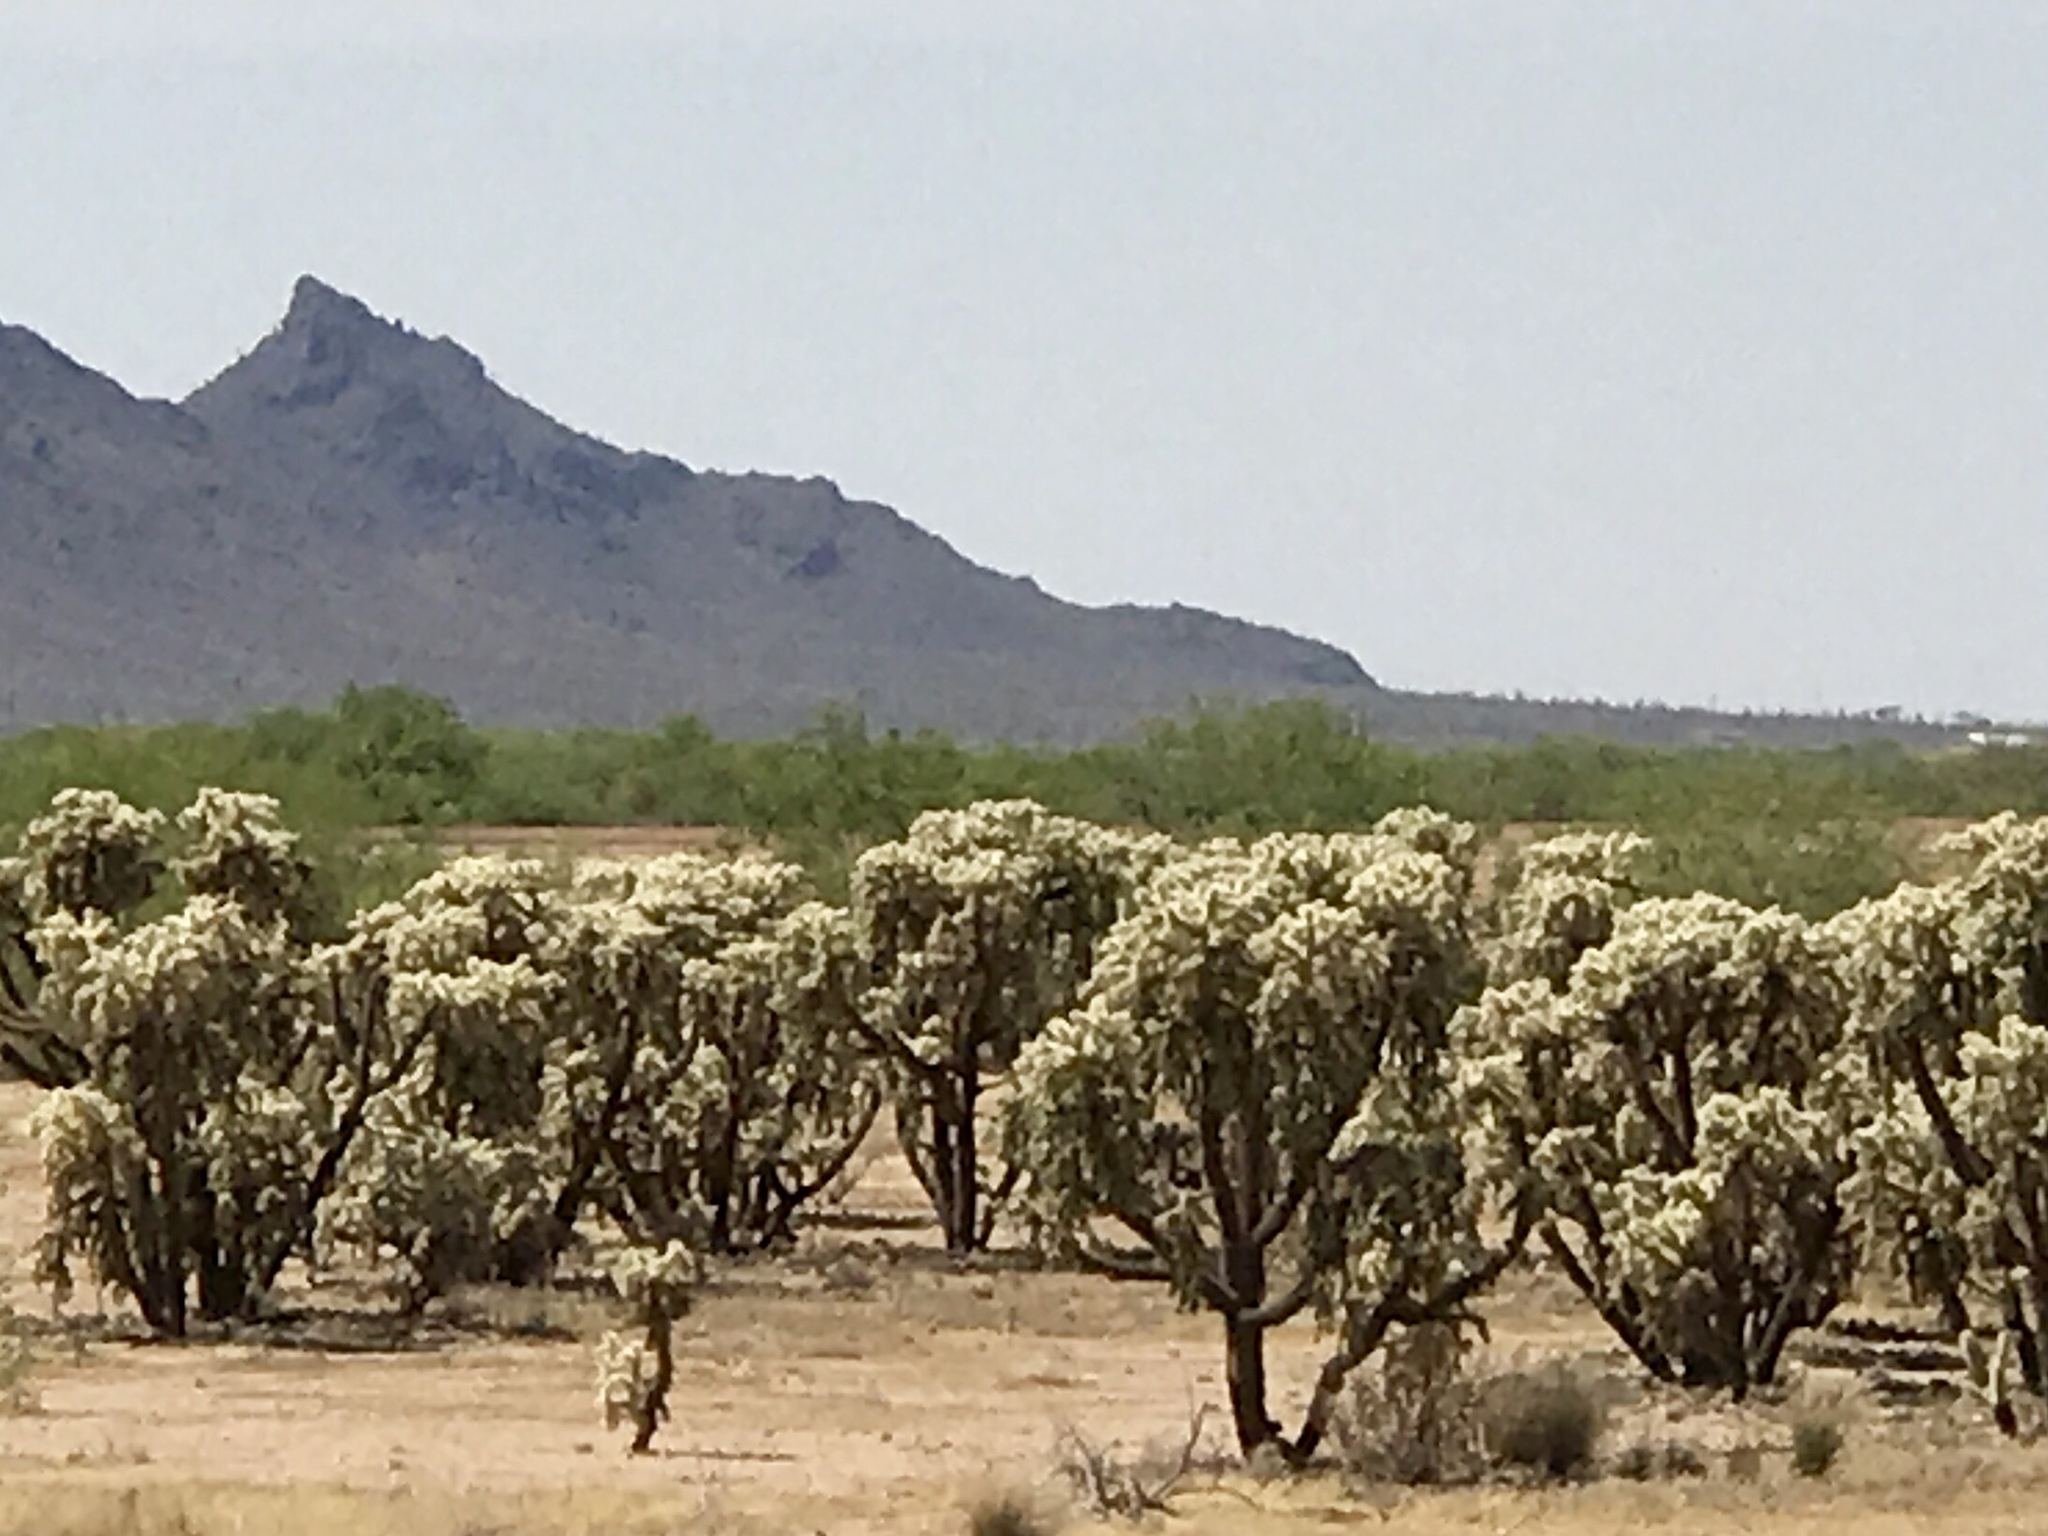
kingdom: Plantae
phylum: Tracheophyta
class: Magnoliopsida
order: Caryophyllales
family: Cactaceae
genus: Cylindropuntia
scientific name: Cylindropuntia fulgida
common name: Jumping cholla
